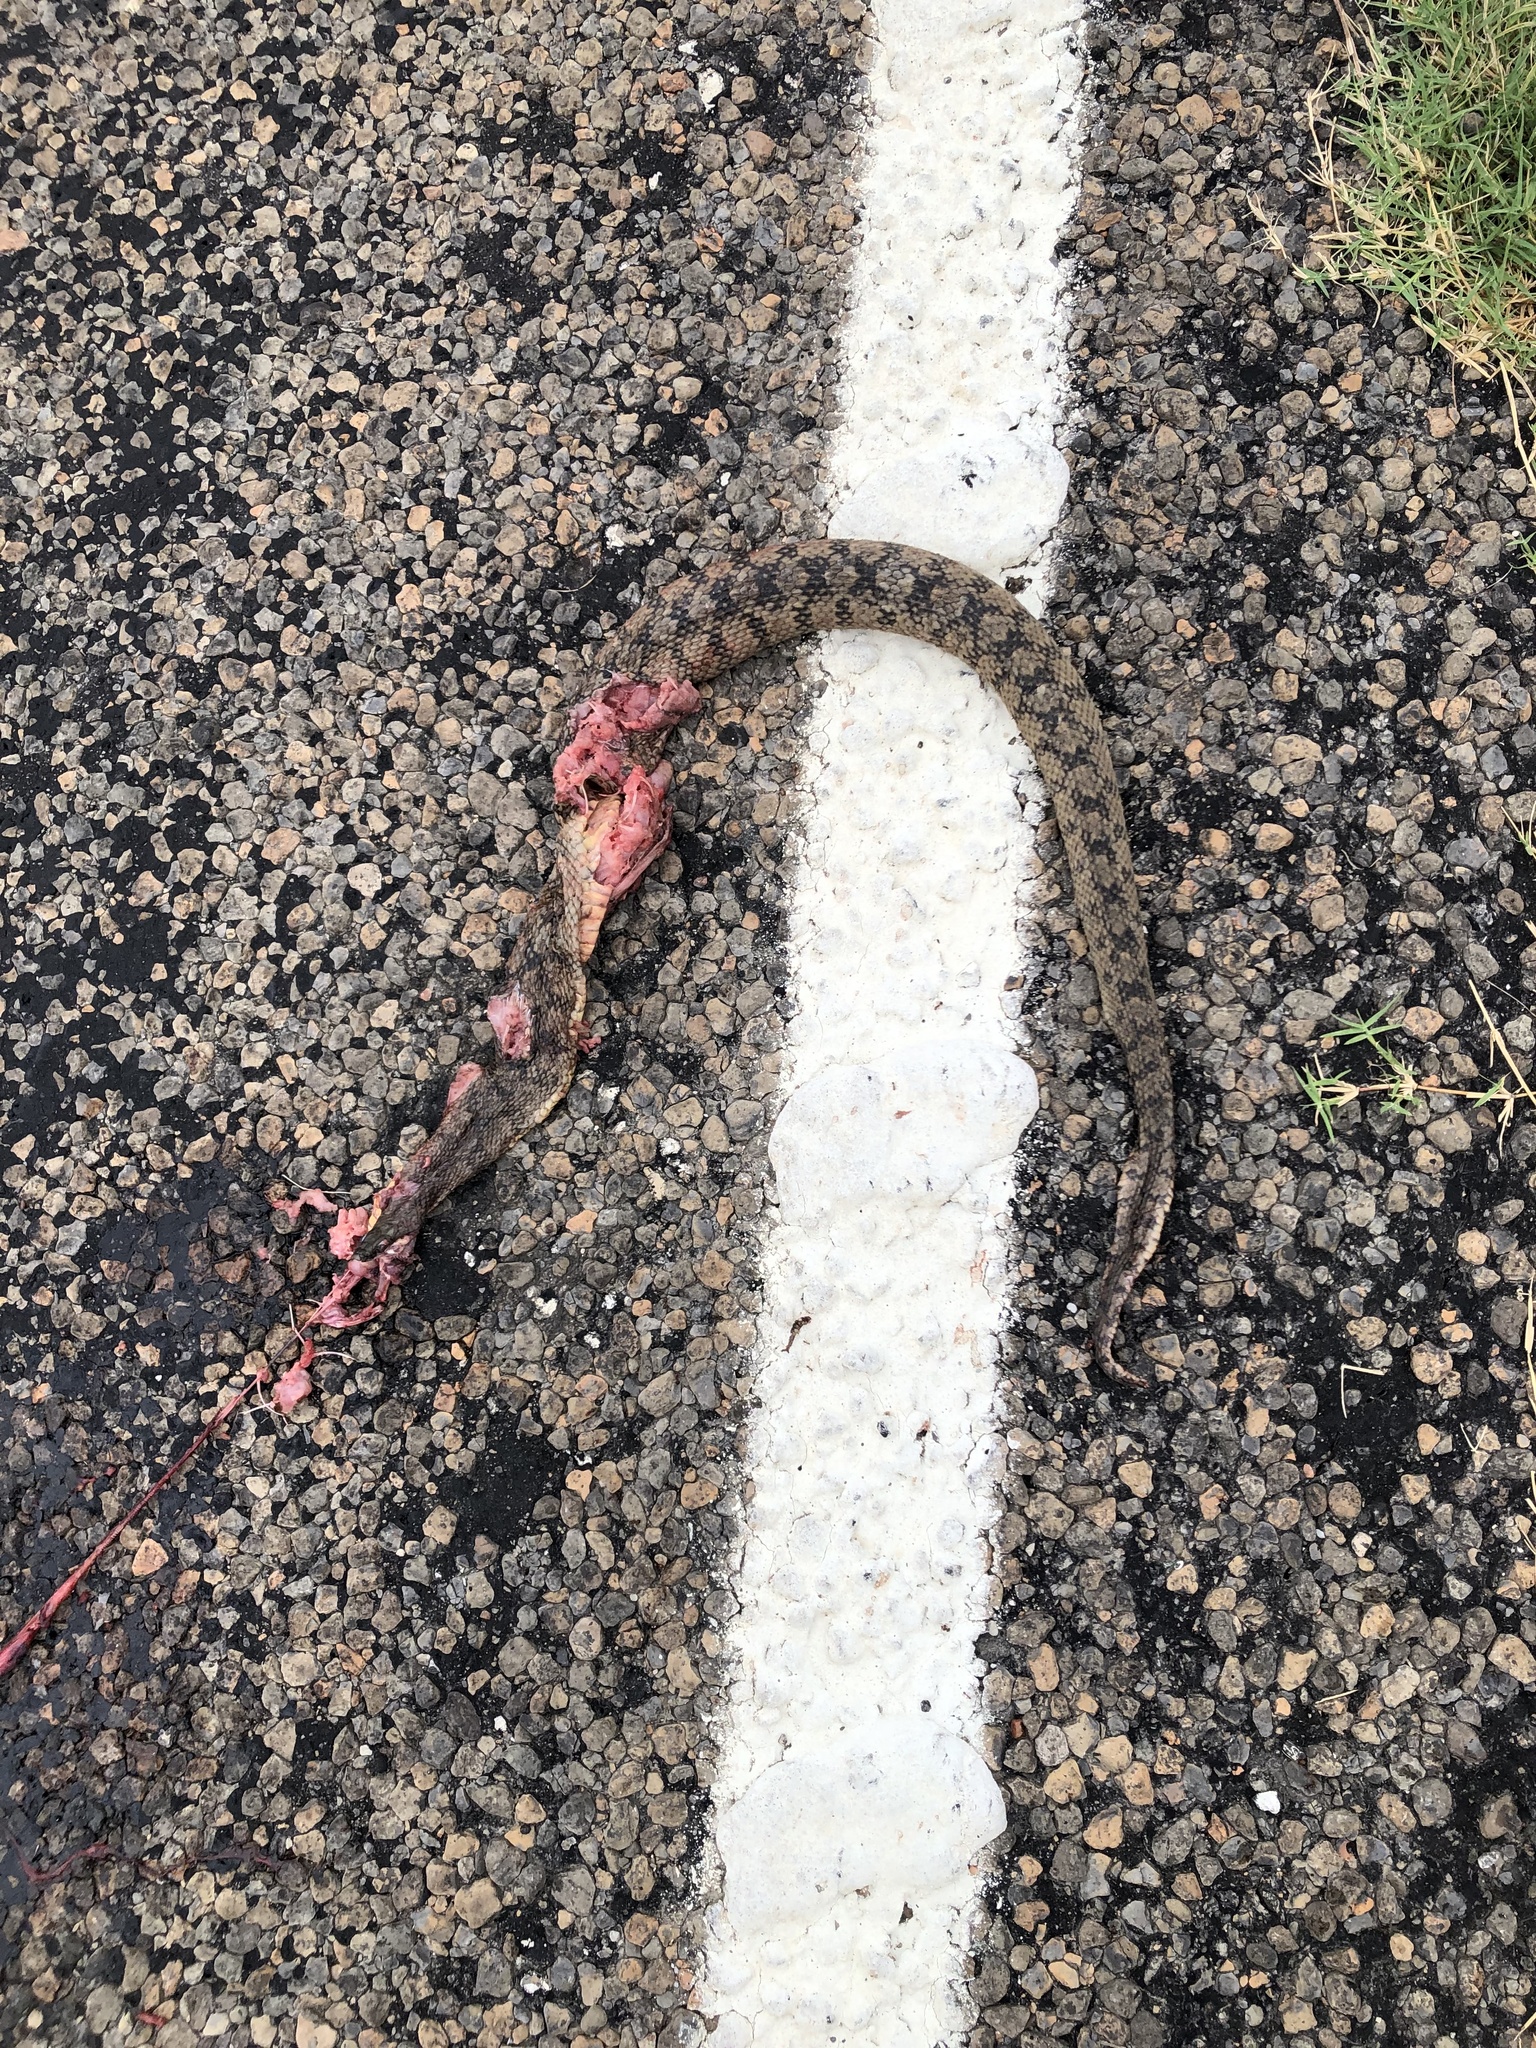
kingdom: Animalia
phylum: Chordata
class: Squamata
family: Colubridae
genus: Nerodia
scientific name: Nerodia rhombifer
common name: Diamondback water snake
